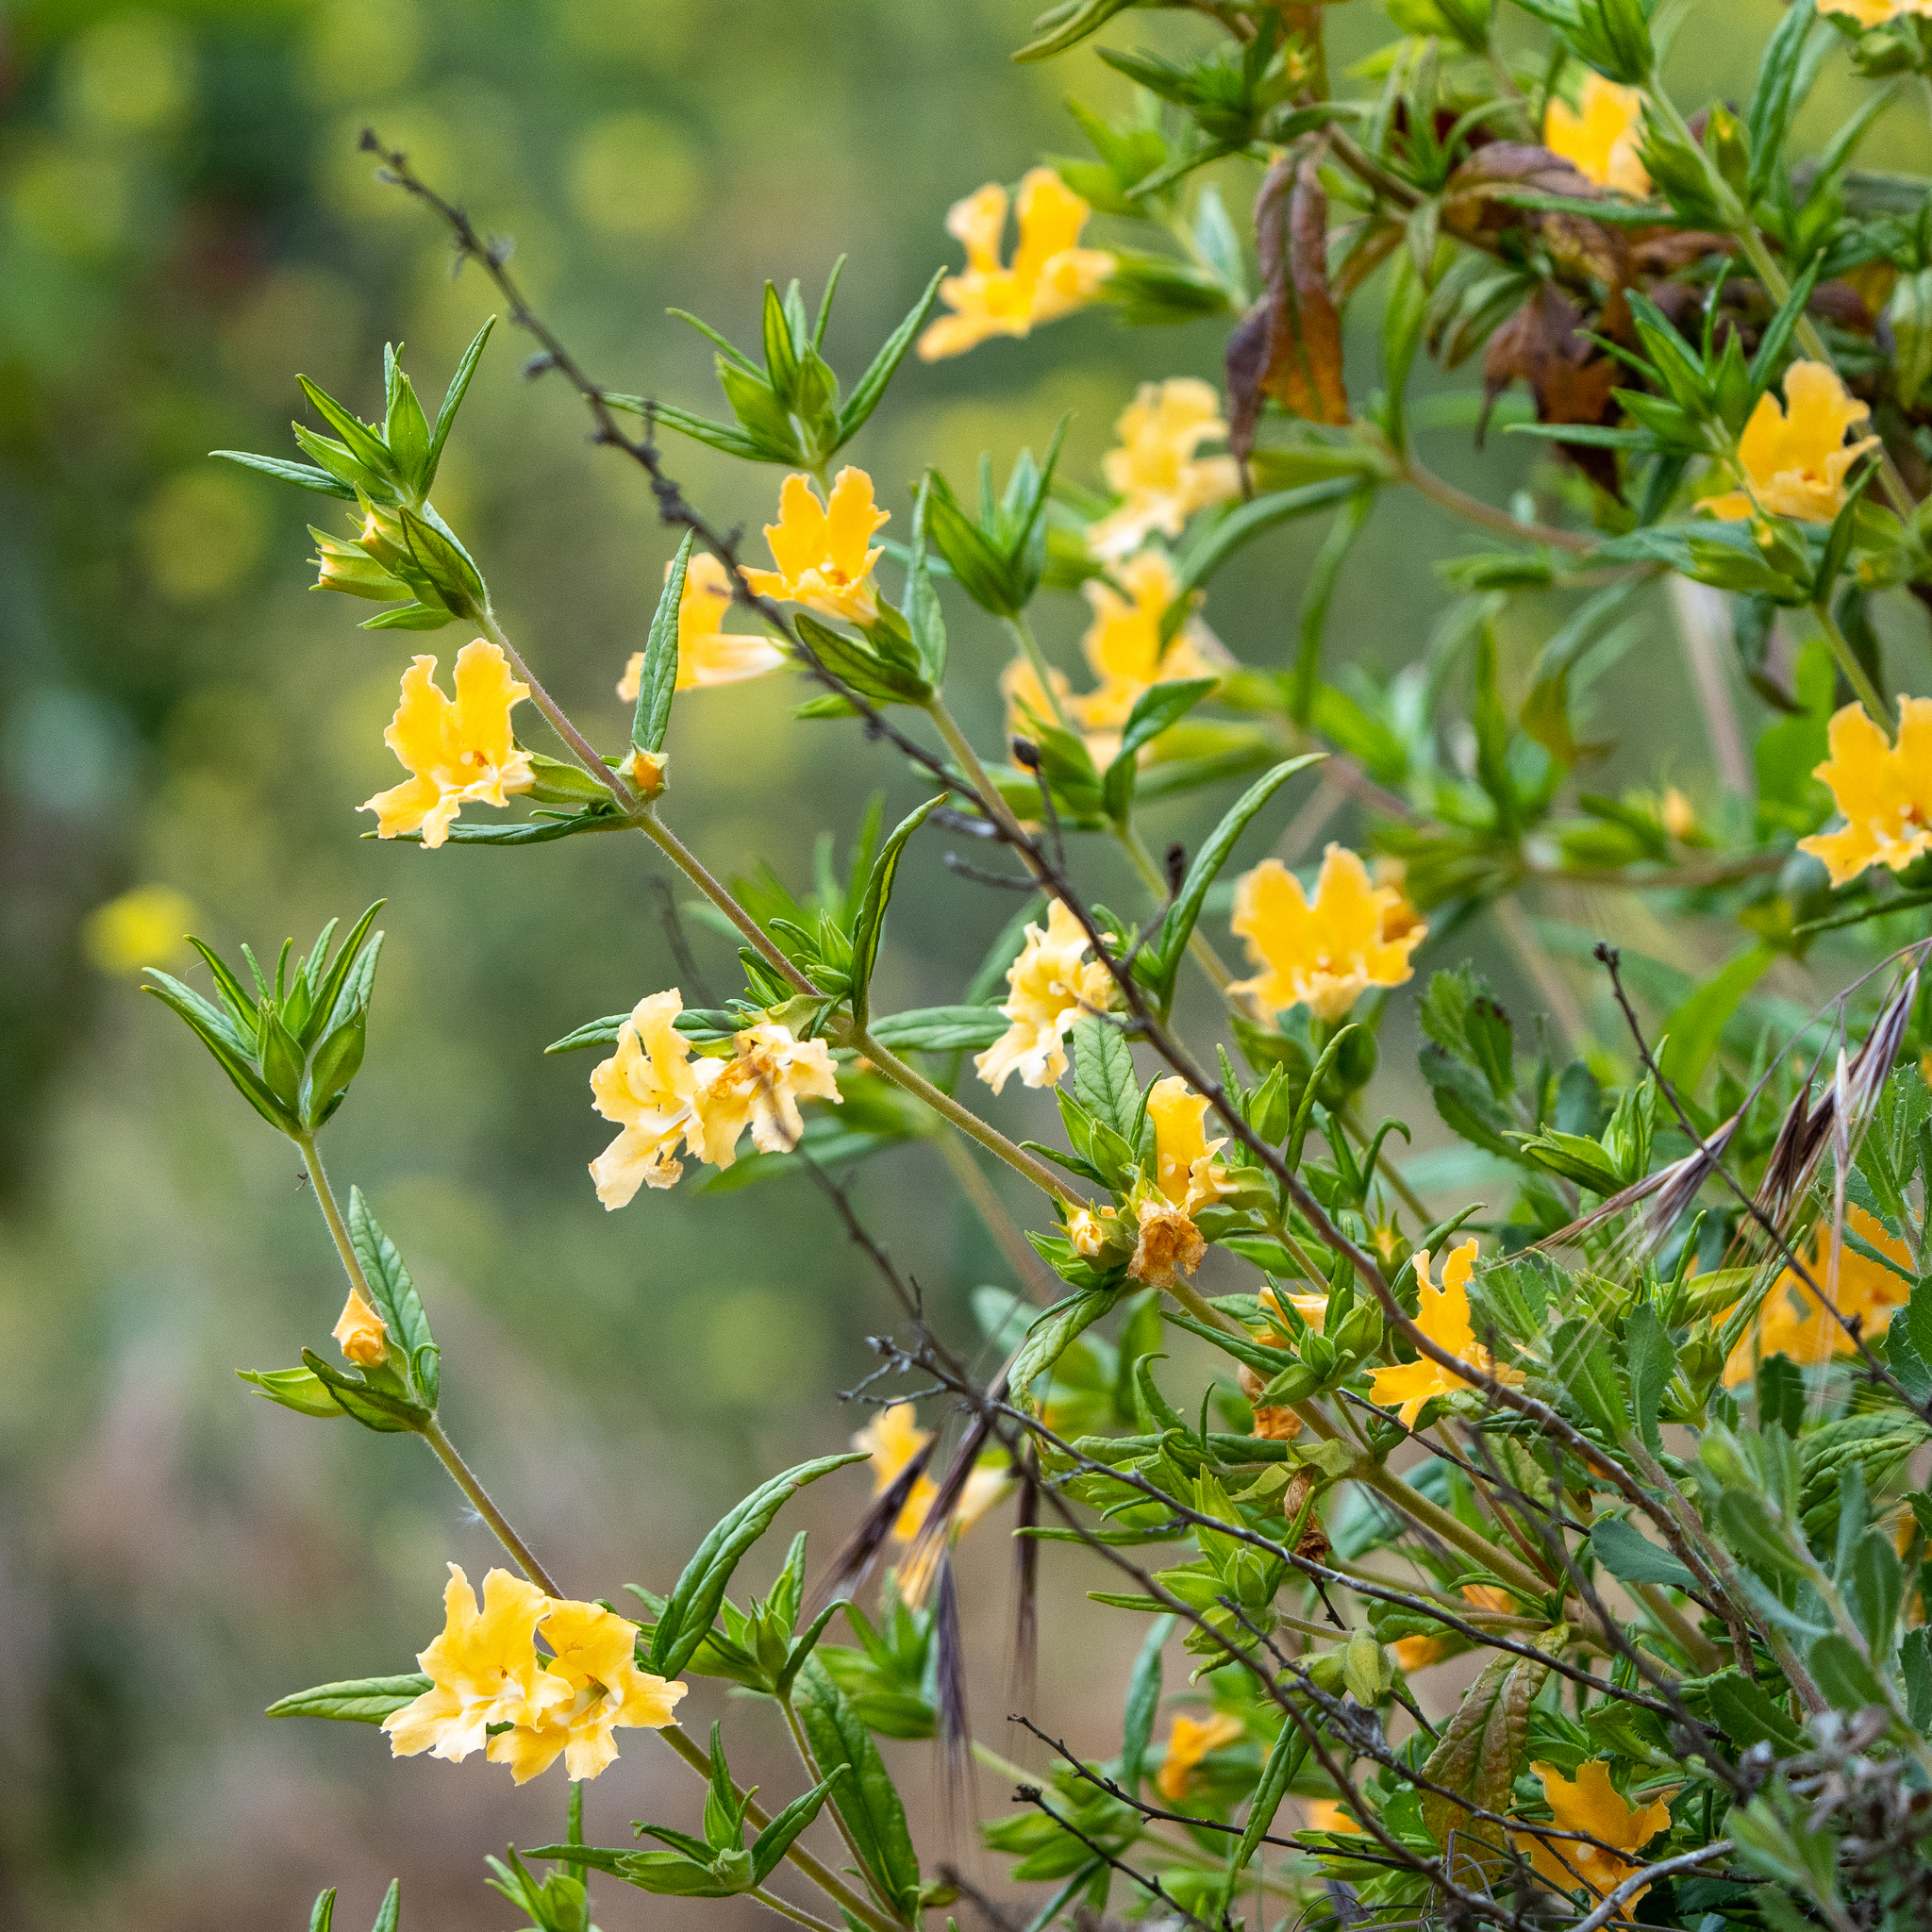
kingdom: Plantae
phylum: Tracheophyta
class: Magnoliopsida
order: Lamiales
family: Phrymaceae
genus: Diplacus
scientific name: Diplacus longiflorus
